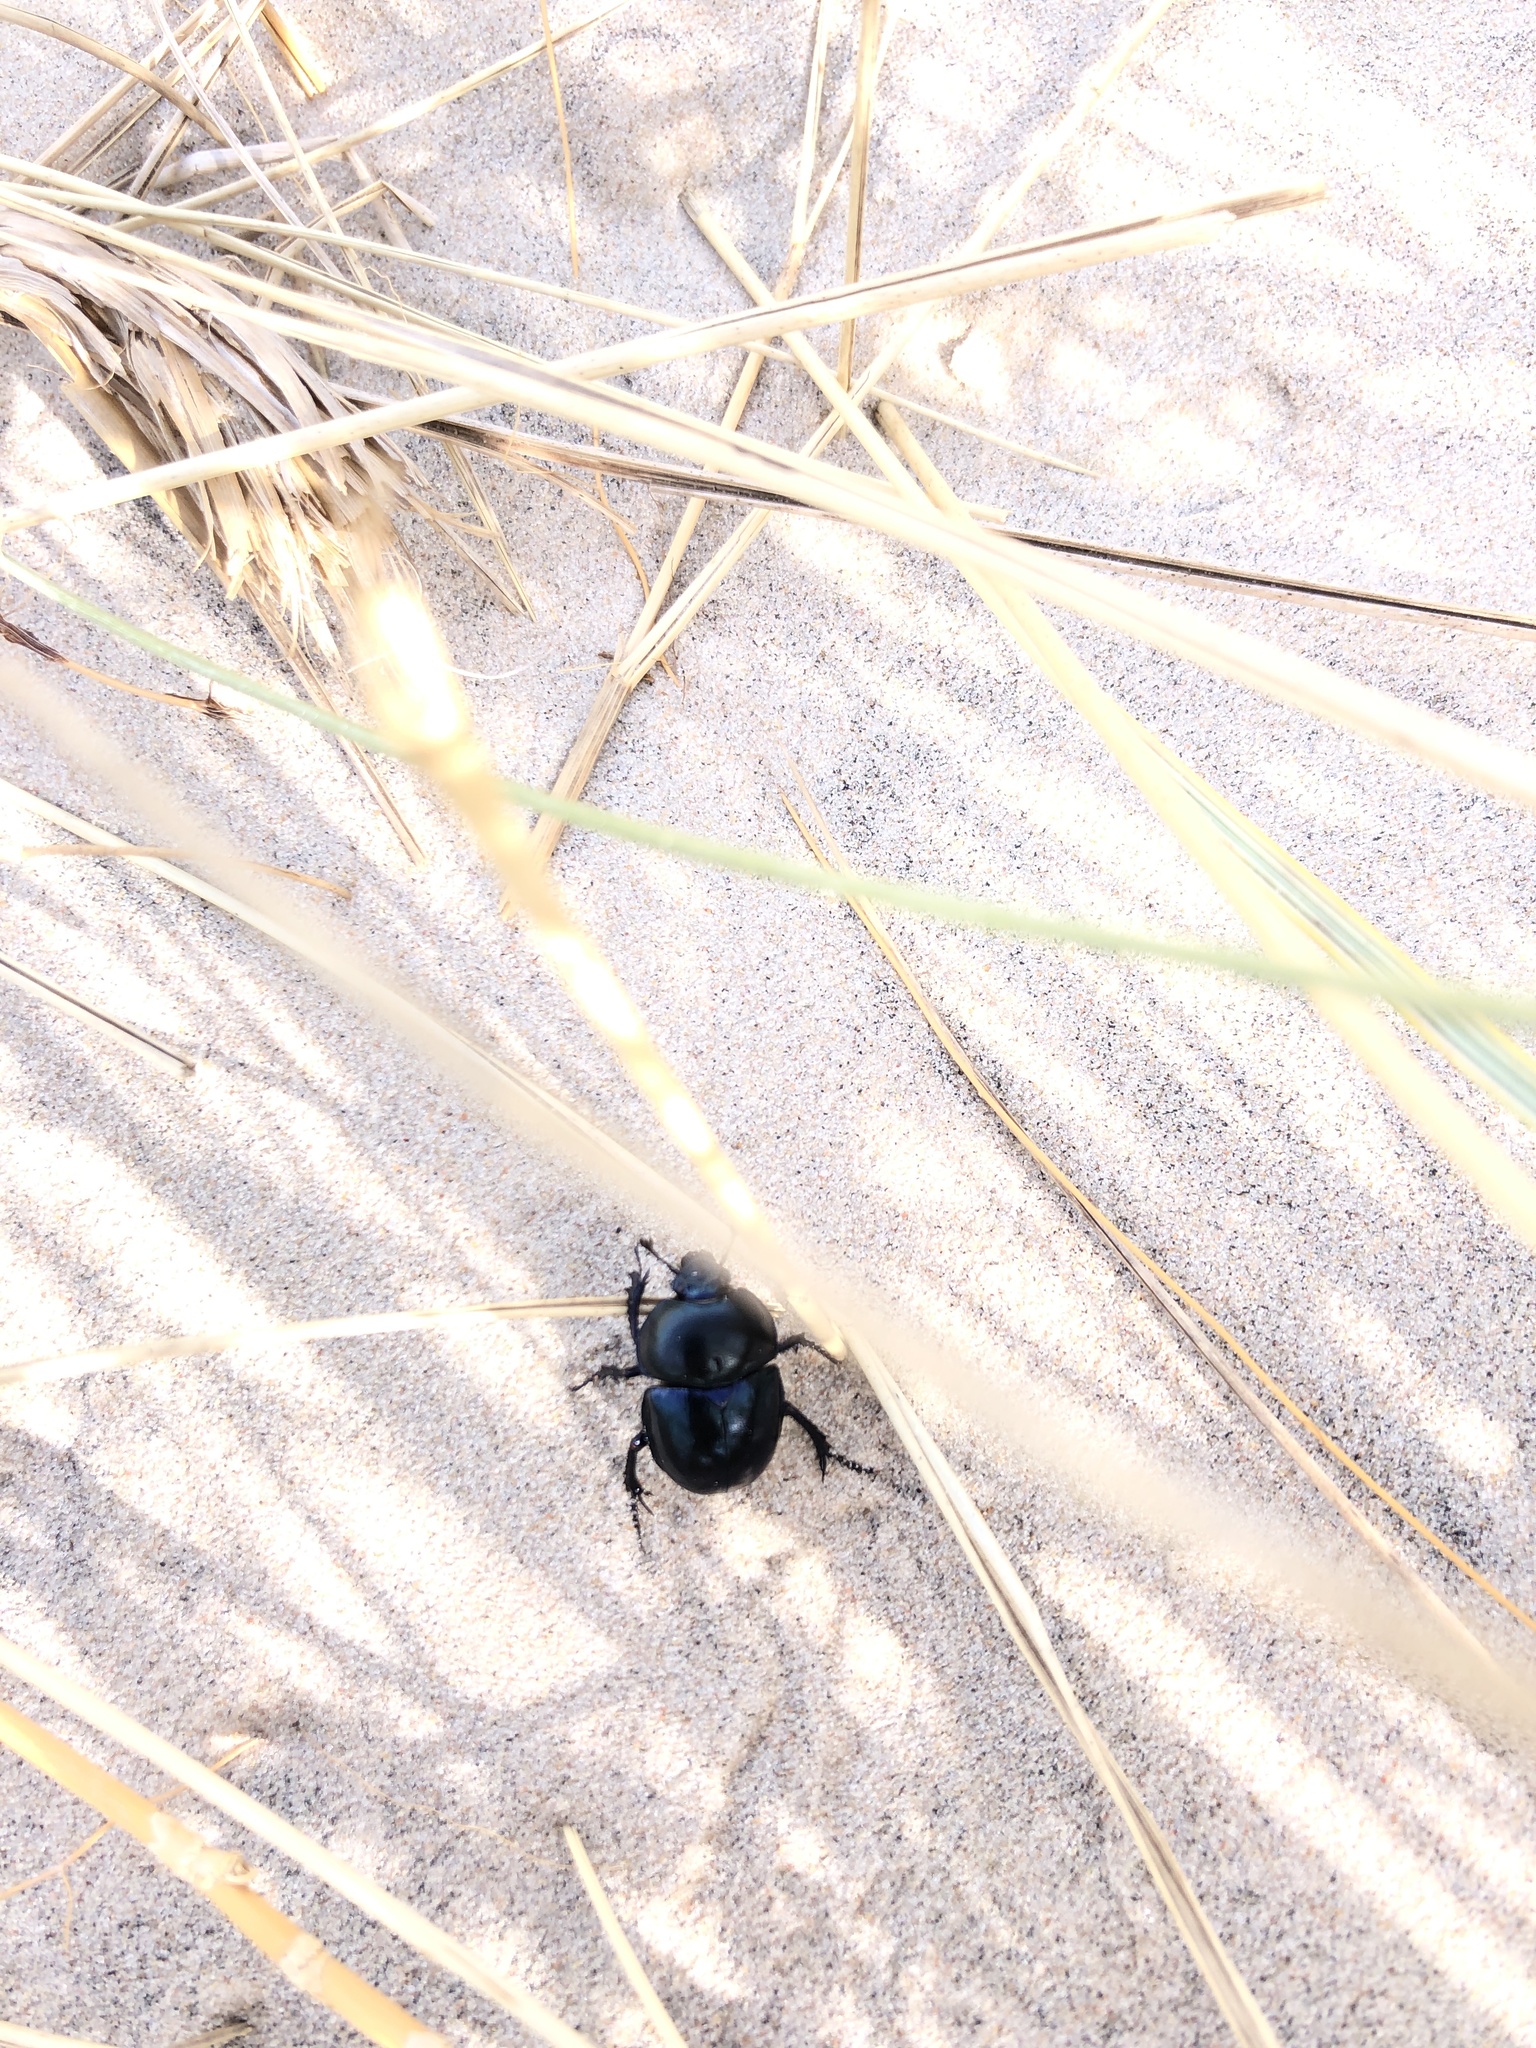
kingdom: Animalia
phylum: Arthropoda
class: Insecta
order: Coleoptera
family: Geotrupidae
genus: Trypocopris
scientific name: Trypocopris vernalis
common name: Spring dumbledor
